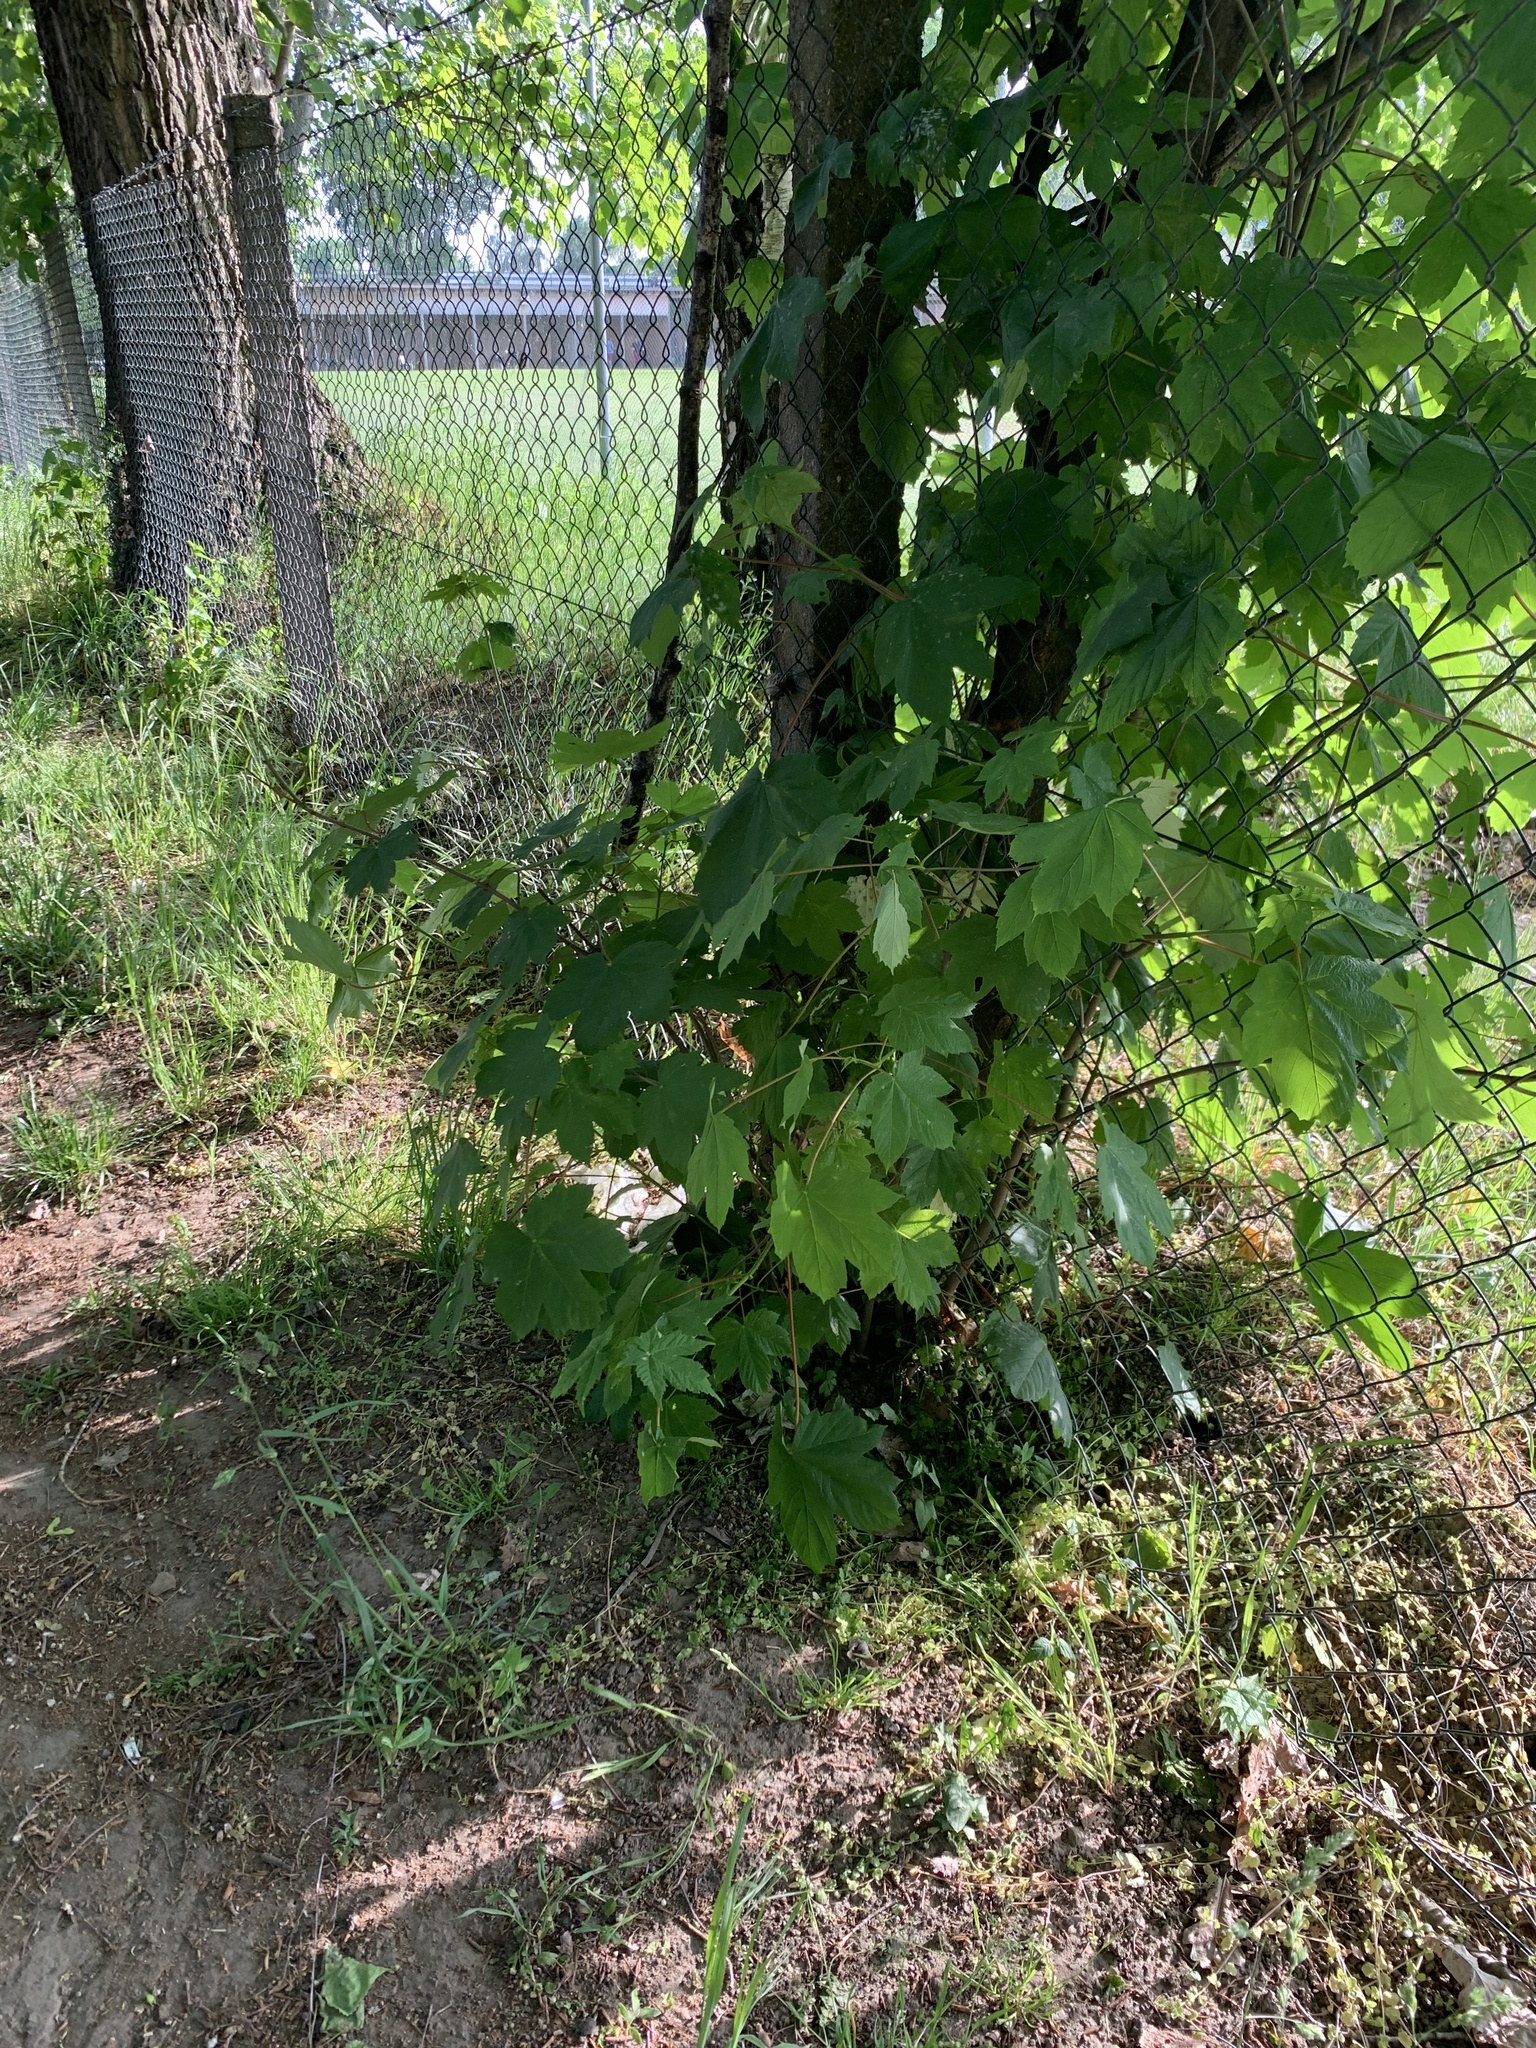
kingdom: Plantae
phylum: Tracheophyta
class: Magnoliopsida
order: Sapindales
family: Sapindaceae
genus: Acer
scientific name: Acer pseudoplatanus
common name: Sycamore
